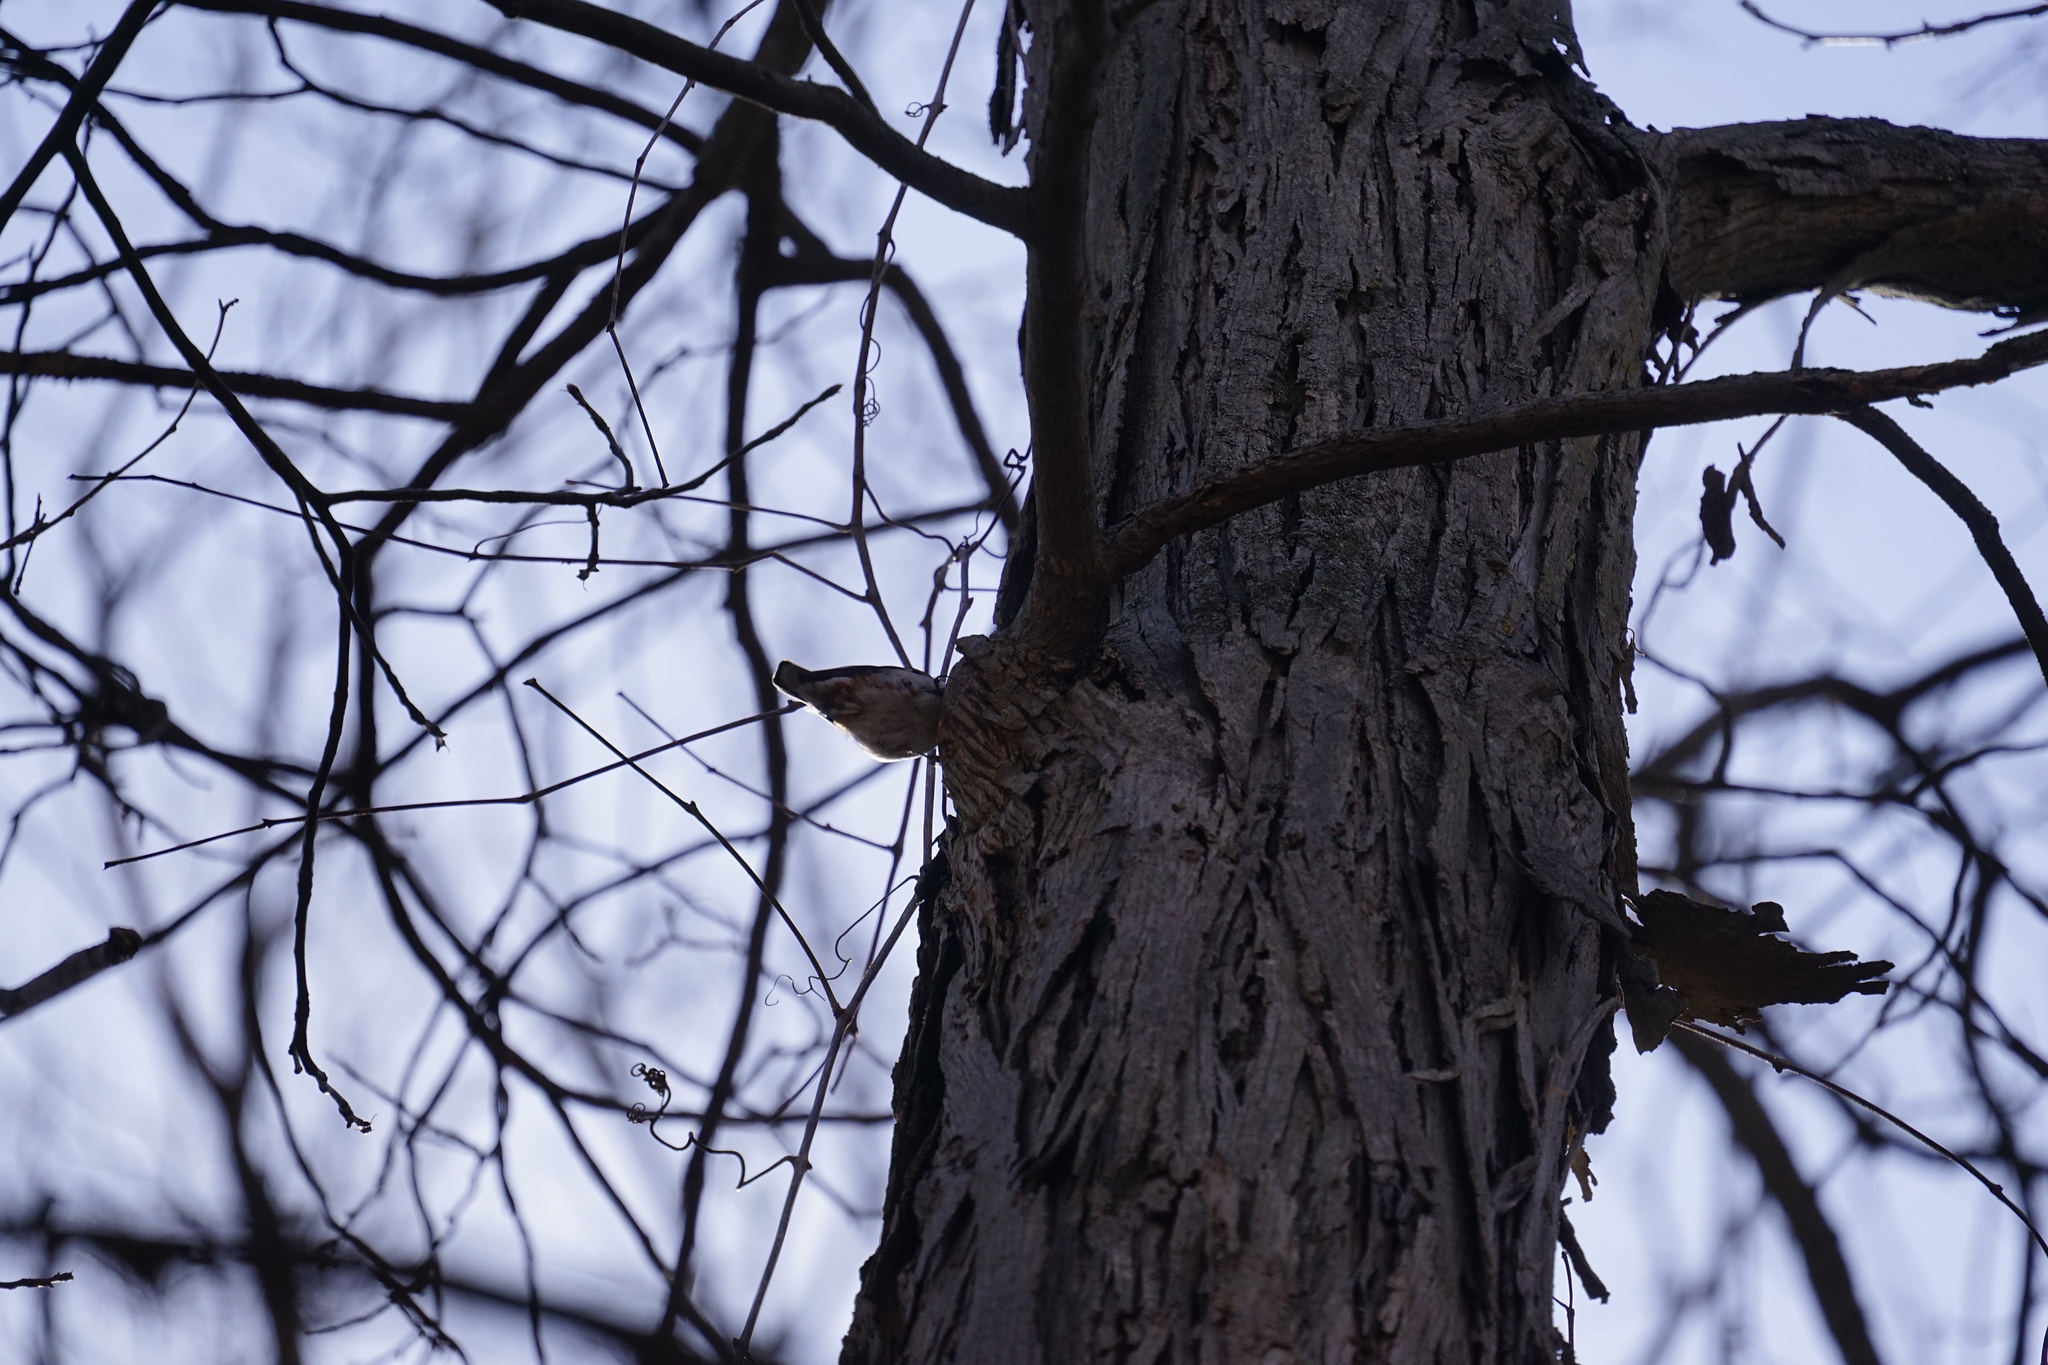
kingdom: Animalia
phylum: Chordata
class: Aves
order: Passeriformes
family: Sittidae
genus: Sitta
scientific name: Sitta carolinensis
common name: White-breasted nuthatch
